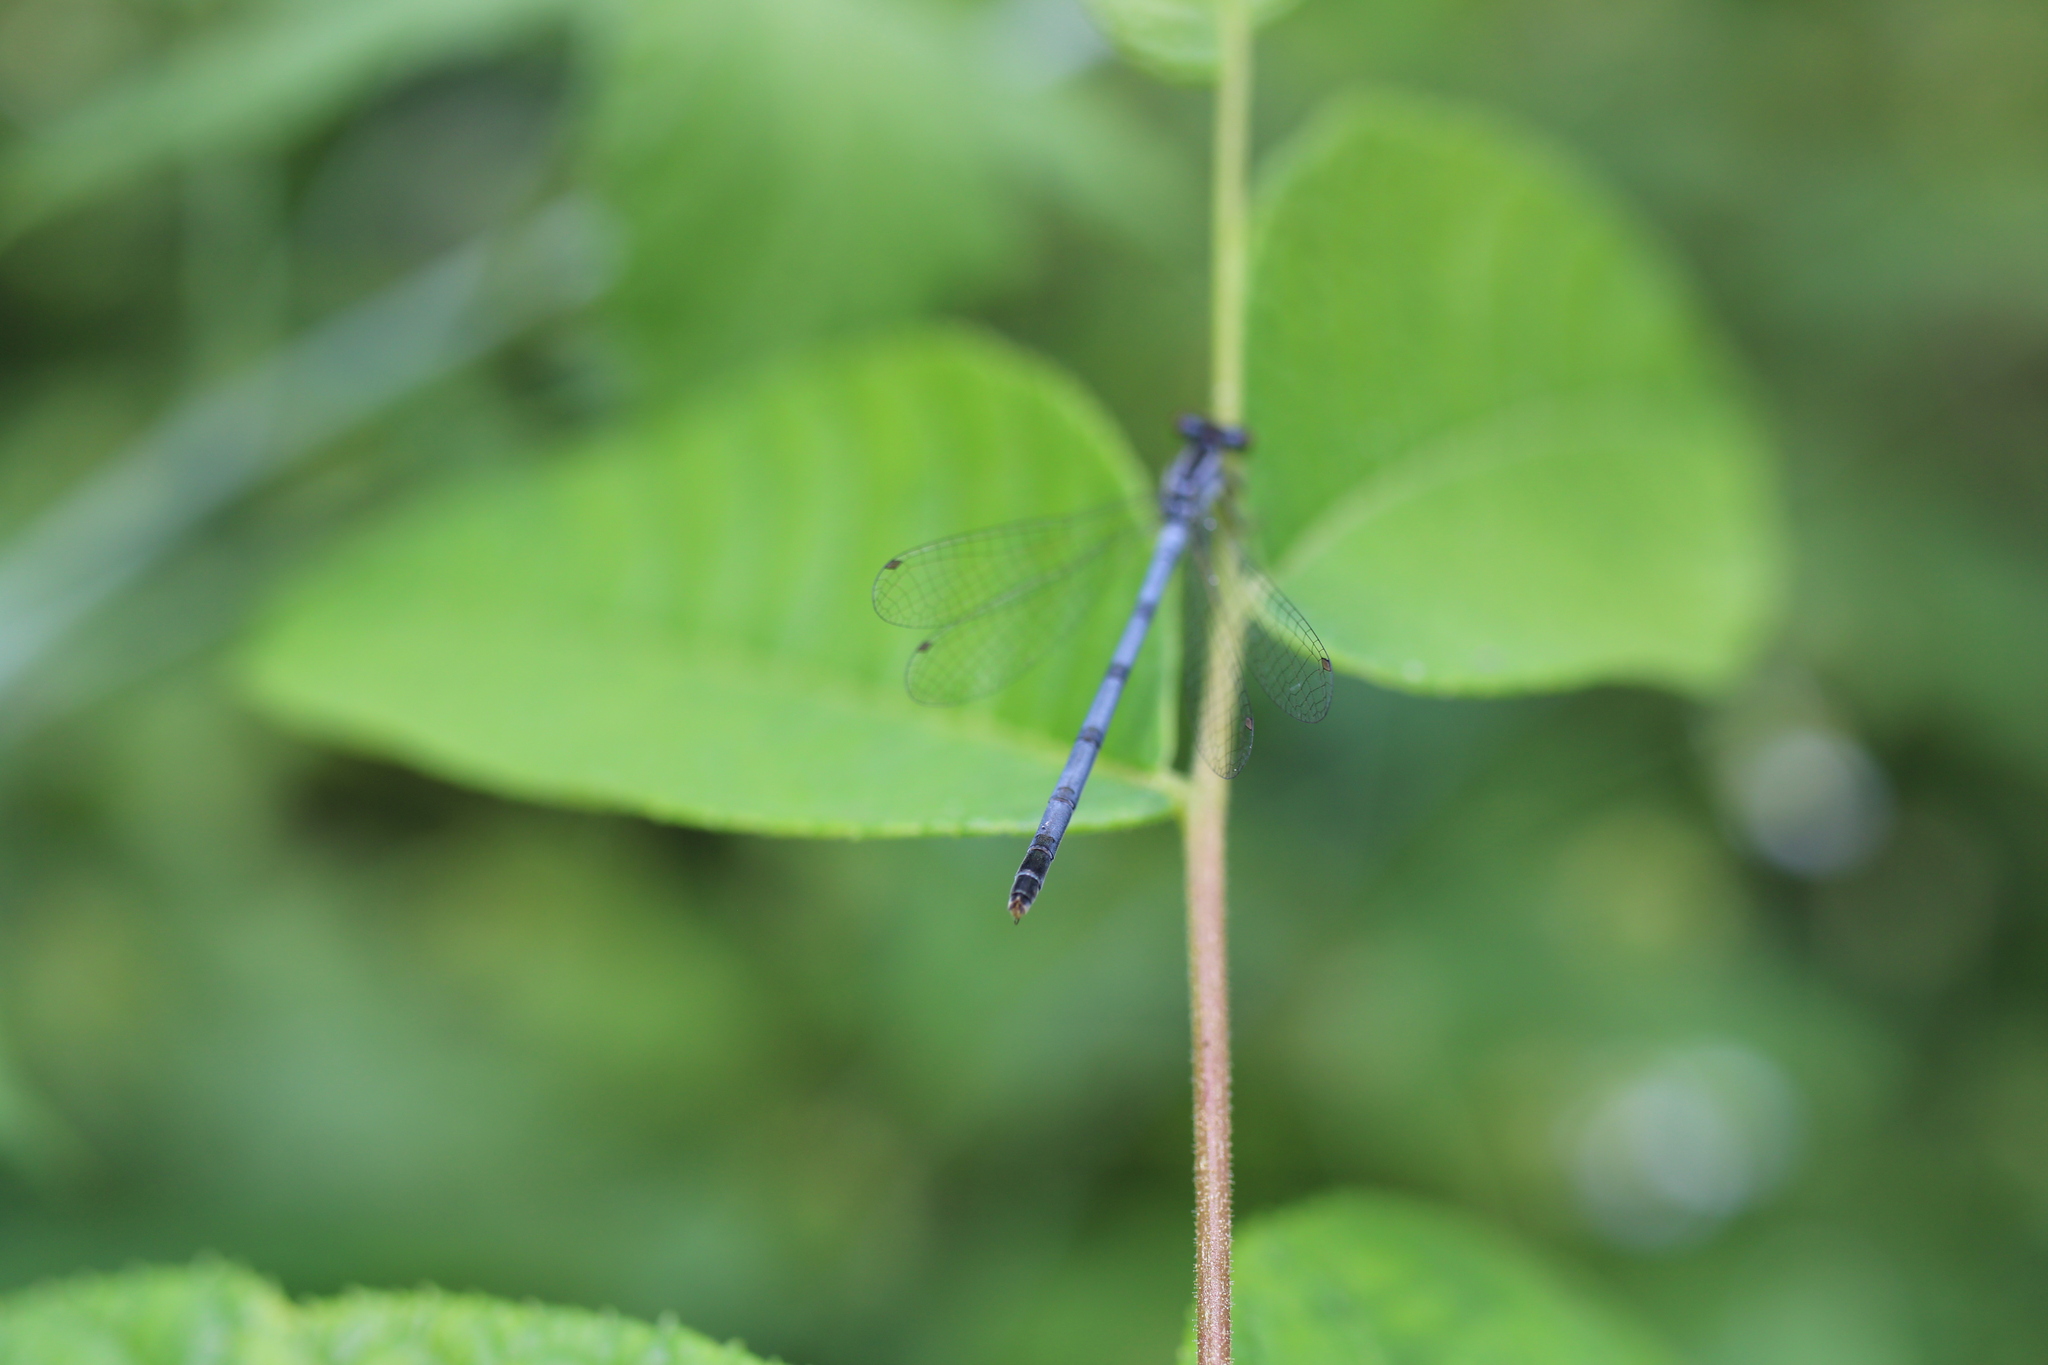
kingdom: Animalia
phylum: Arthropoda
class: Insecta
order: Odonata
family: Coenagrionidae
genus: Ischnura
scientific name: Ischnura verticalis
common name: Eastern forktail
